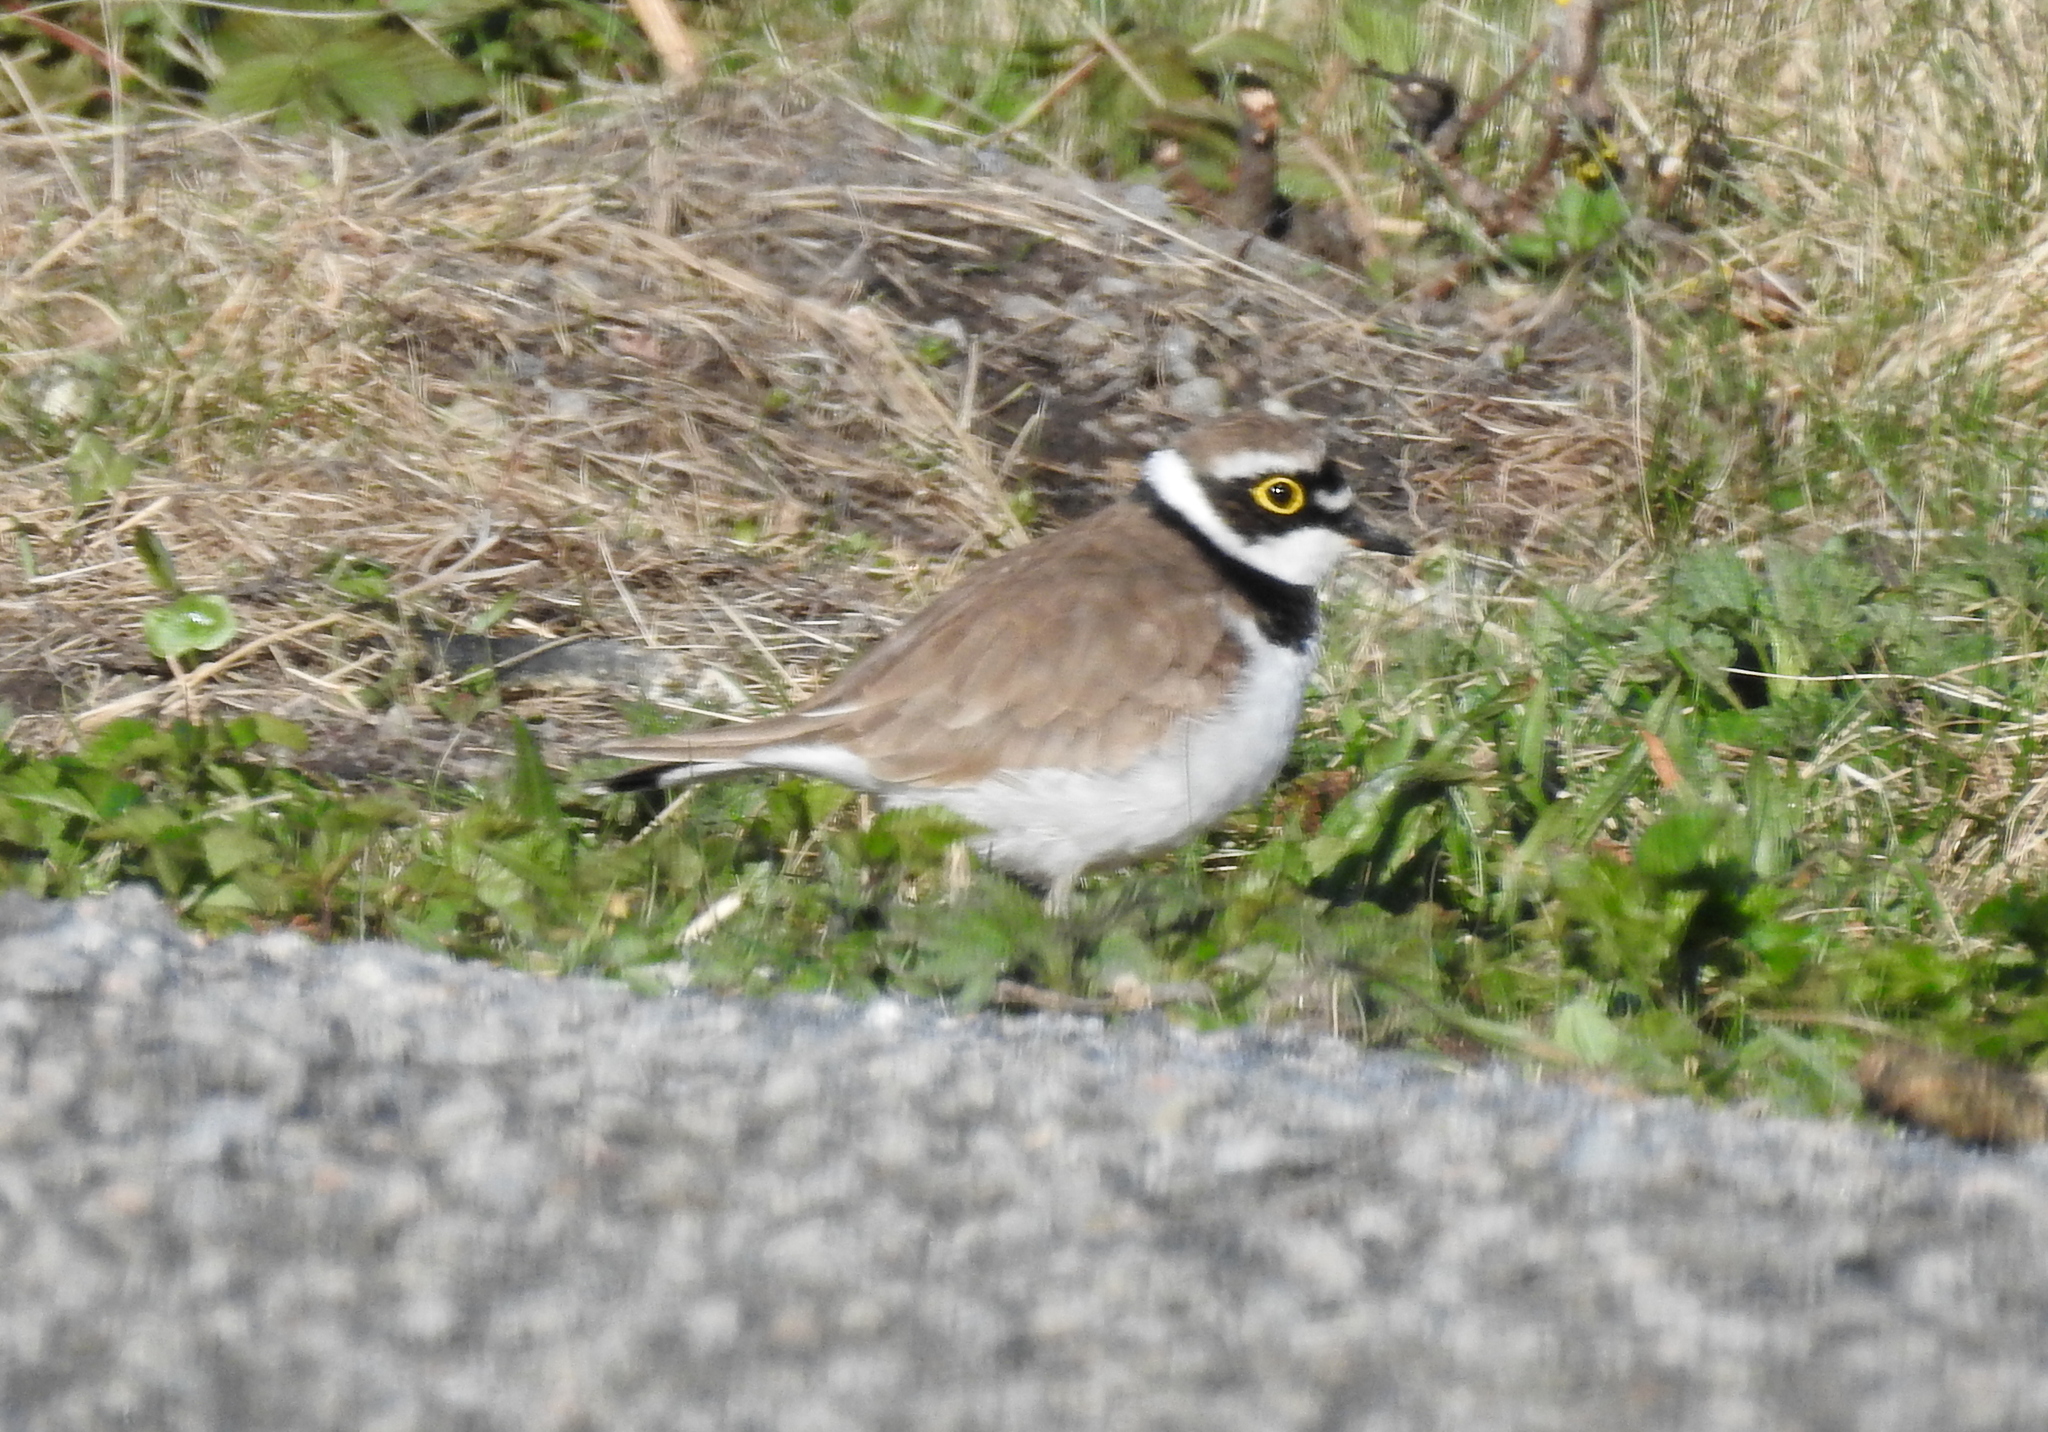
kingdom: Animalia
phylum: Chordata
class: Aves
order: Charadriiformes
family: Charadriidae
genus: Charadrius
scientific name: Charadrius dubius
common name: Little ringed plover
